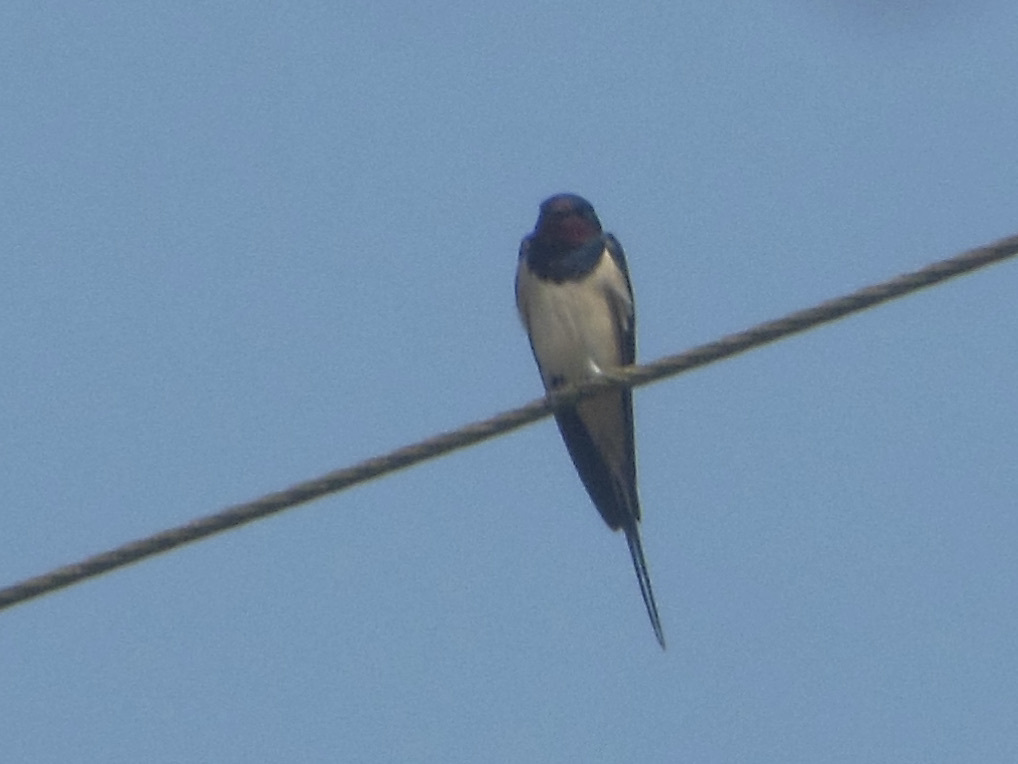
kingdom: Animalia
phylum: Chordata
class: Aves
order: Passeriformes
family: Hirundinidae
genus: Hirundo
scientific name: Hirundo rustica
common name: Barn swallow
